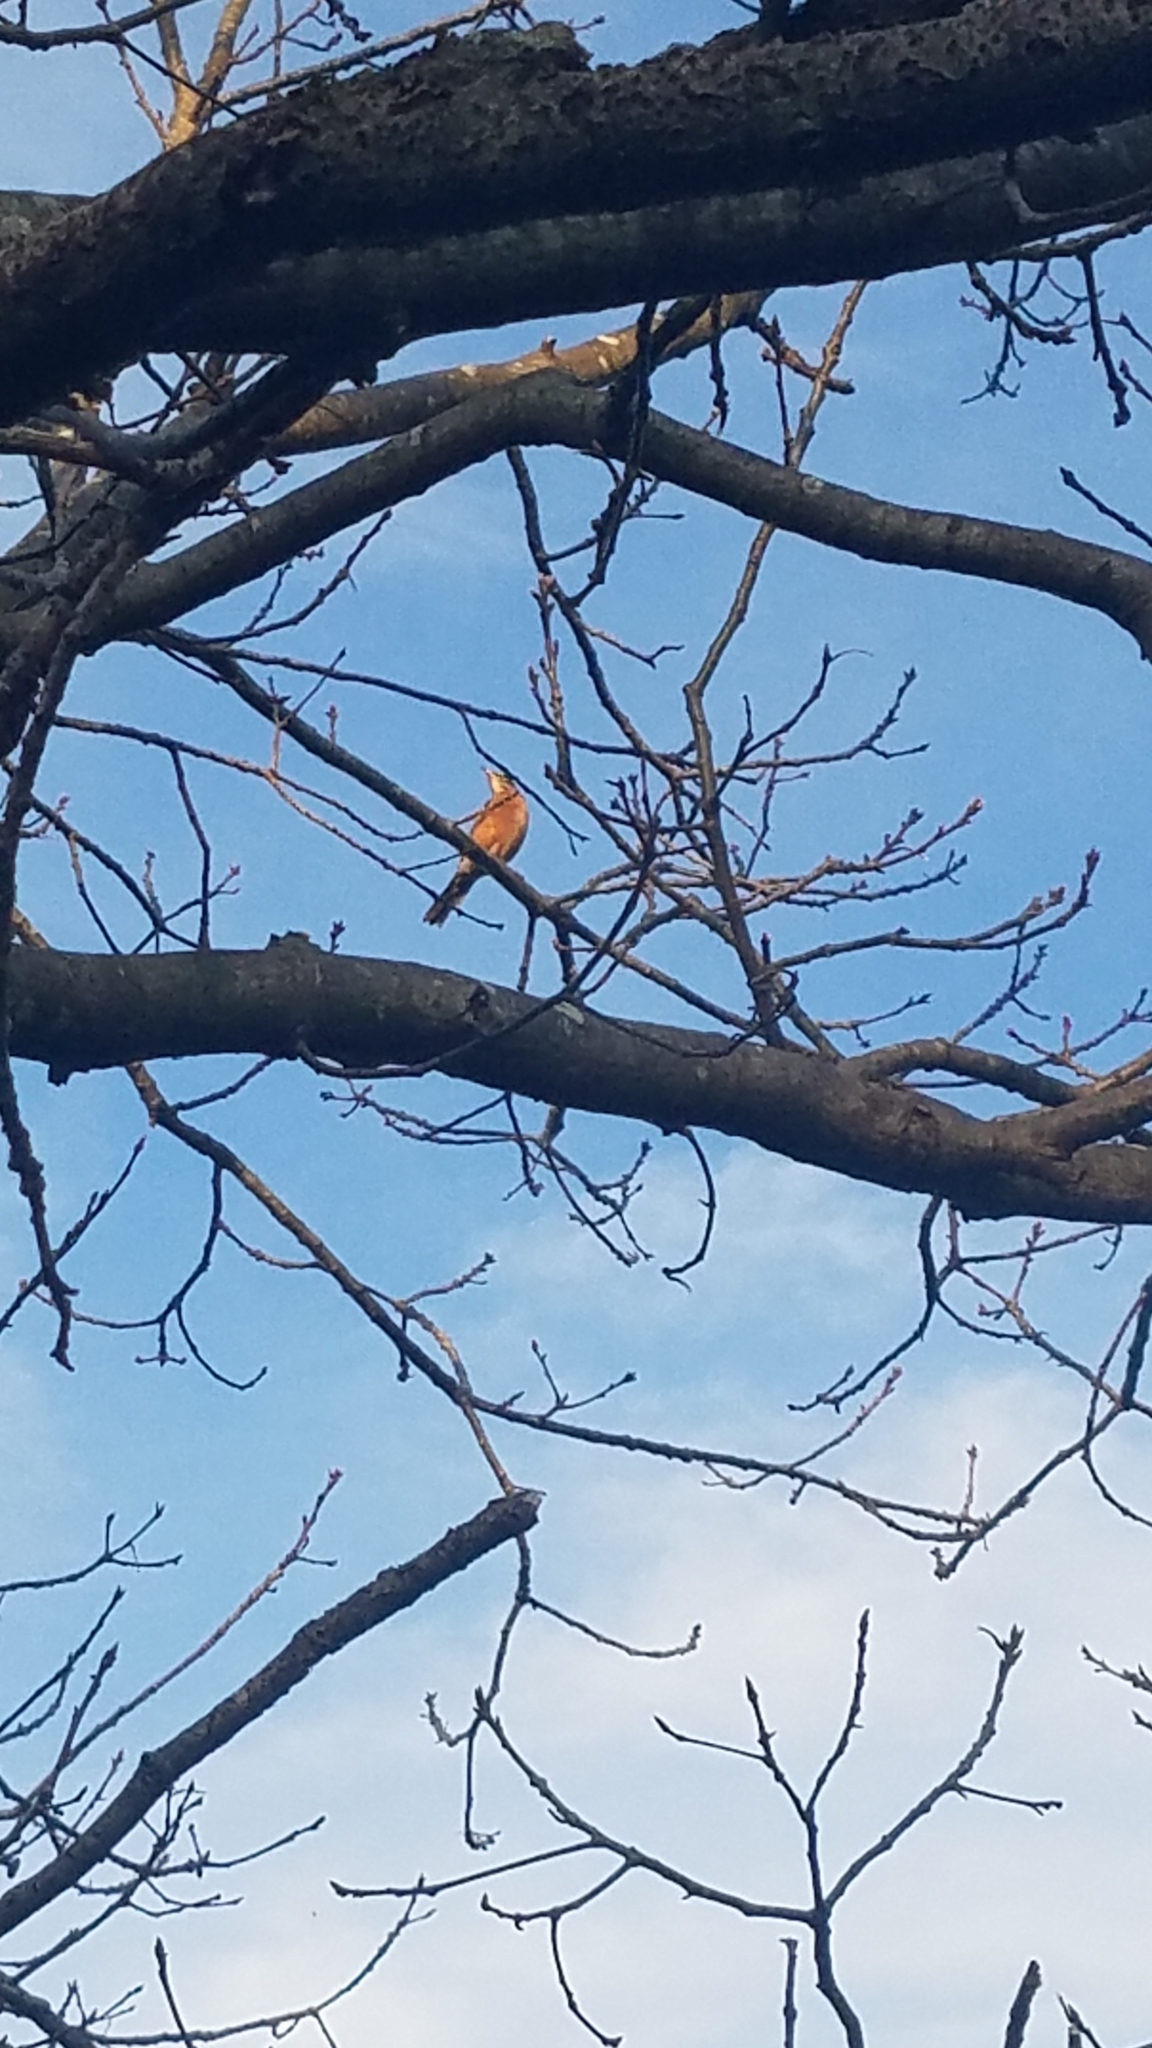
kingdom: Animalia
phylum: Chordata
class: Aves
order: Passeriformes
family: Turdidae
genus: Turdus
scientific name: Turdus migratorius
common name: American robin
